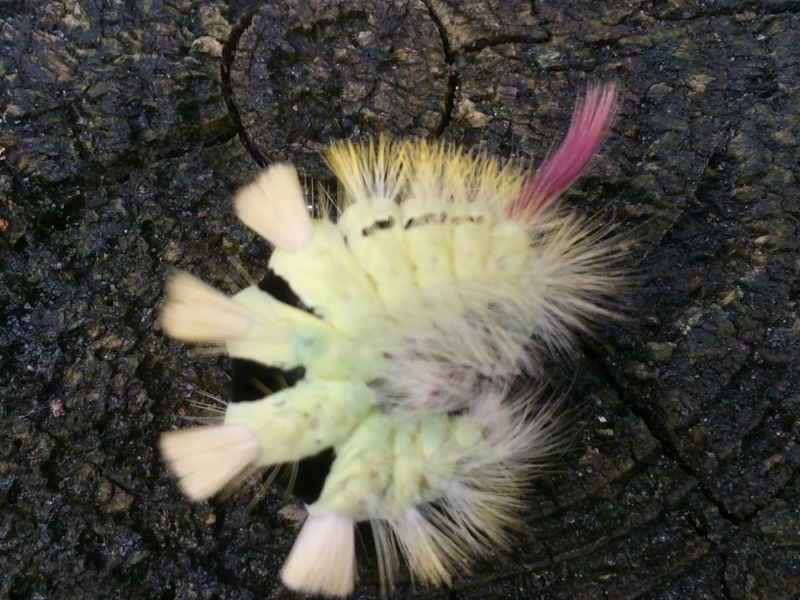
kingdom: Animalia
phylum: Arthropoda
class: Insecta
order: Lepidoptera
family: Erebidae
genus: Calliteara
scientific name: Calliteara pudibunda
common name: Pale tussock
